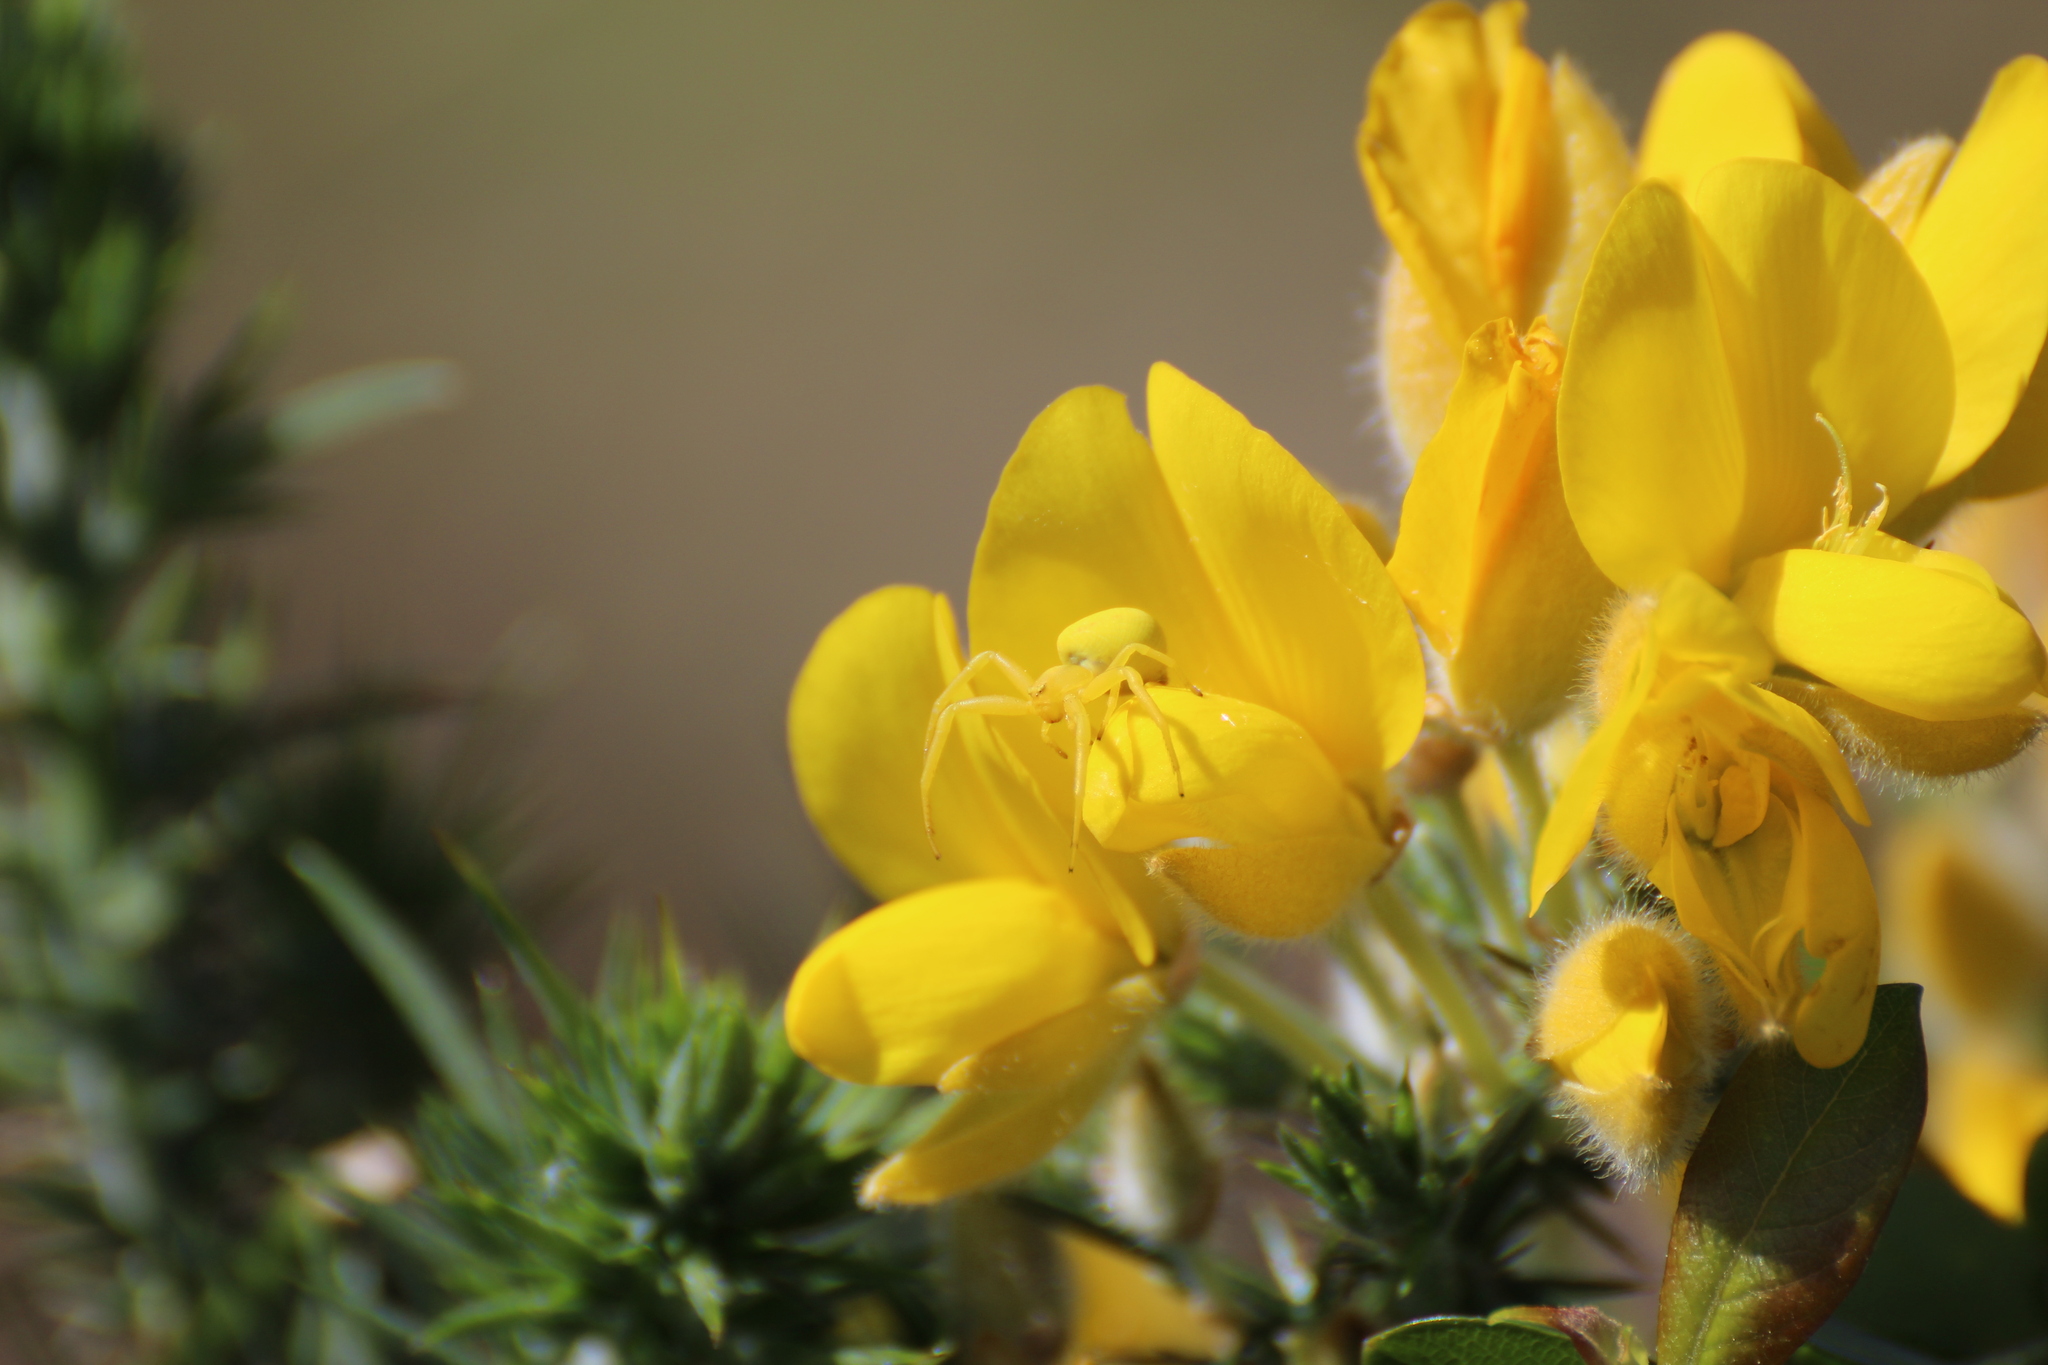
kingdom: Animalia
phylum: Arthropoda
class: Arachnida
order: Araneae
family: Thomisidae
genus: Misumena
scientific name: Misumena vatia
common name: Goldenrod crab spider
